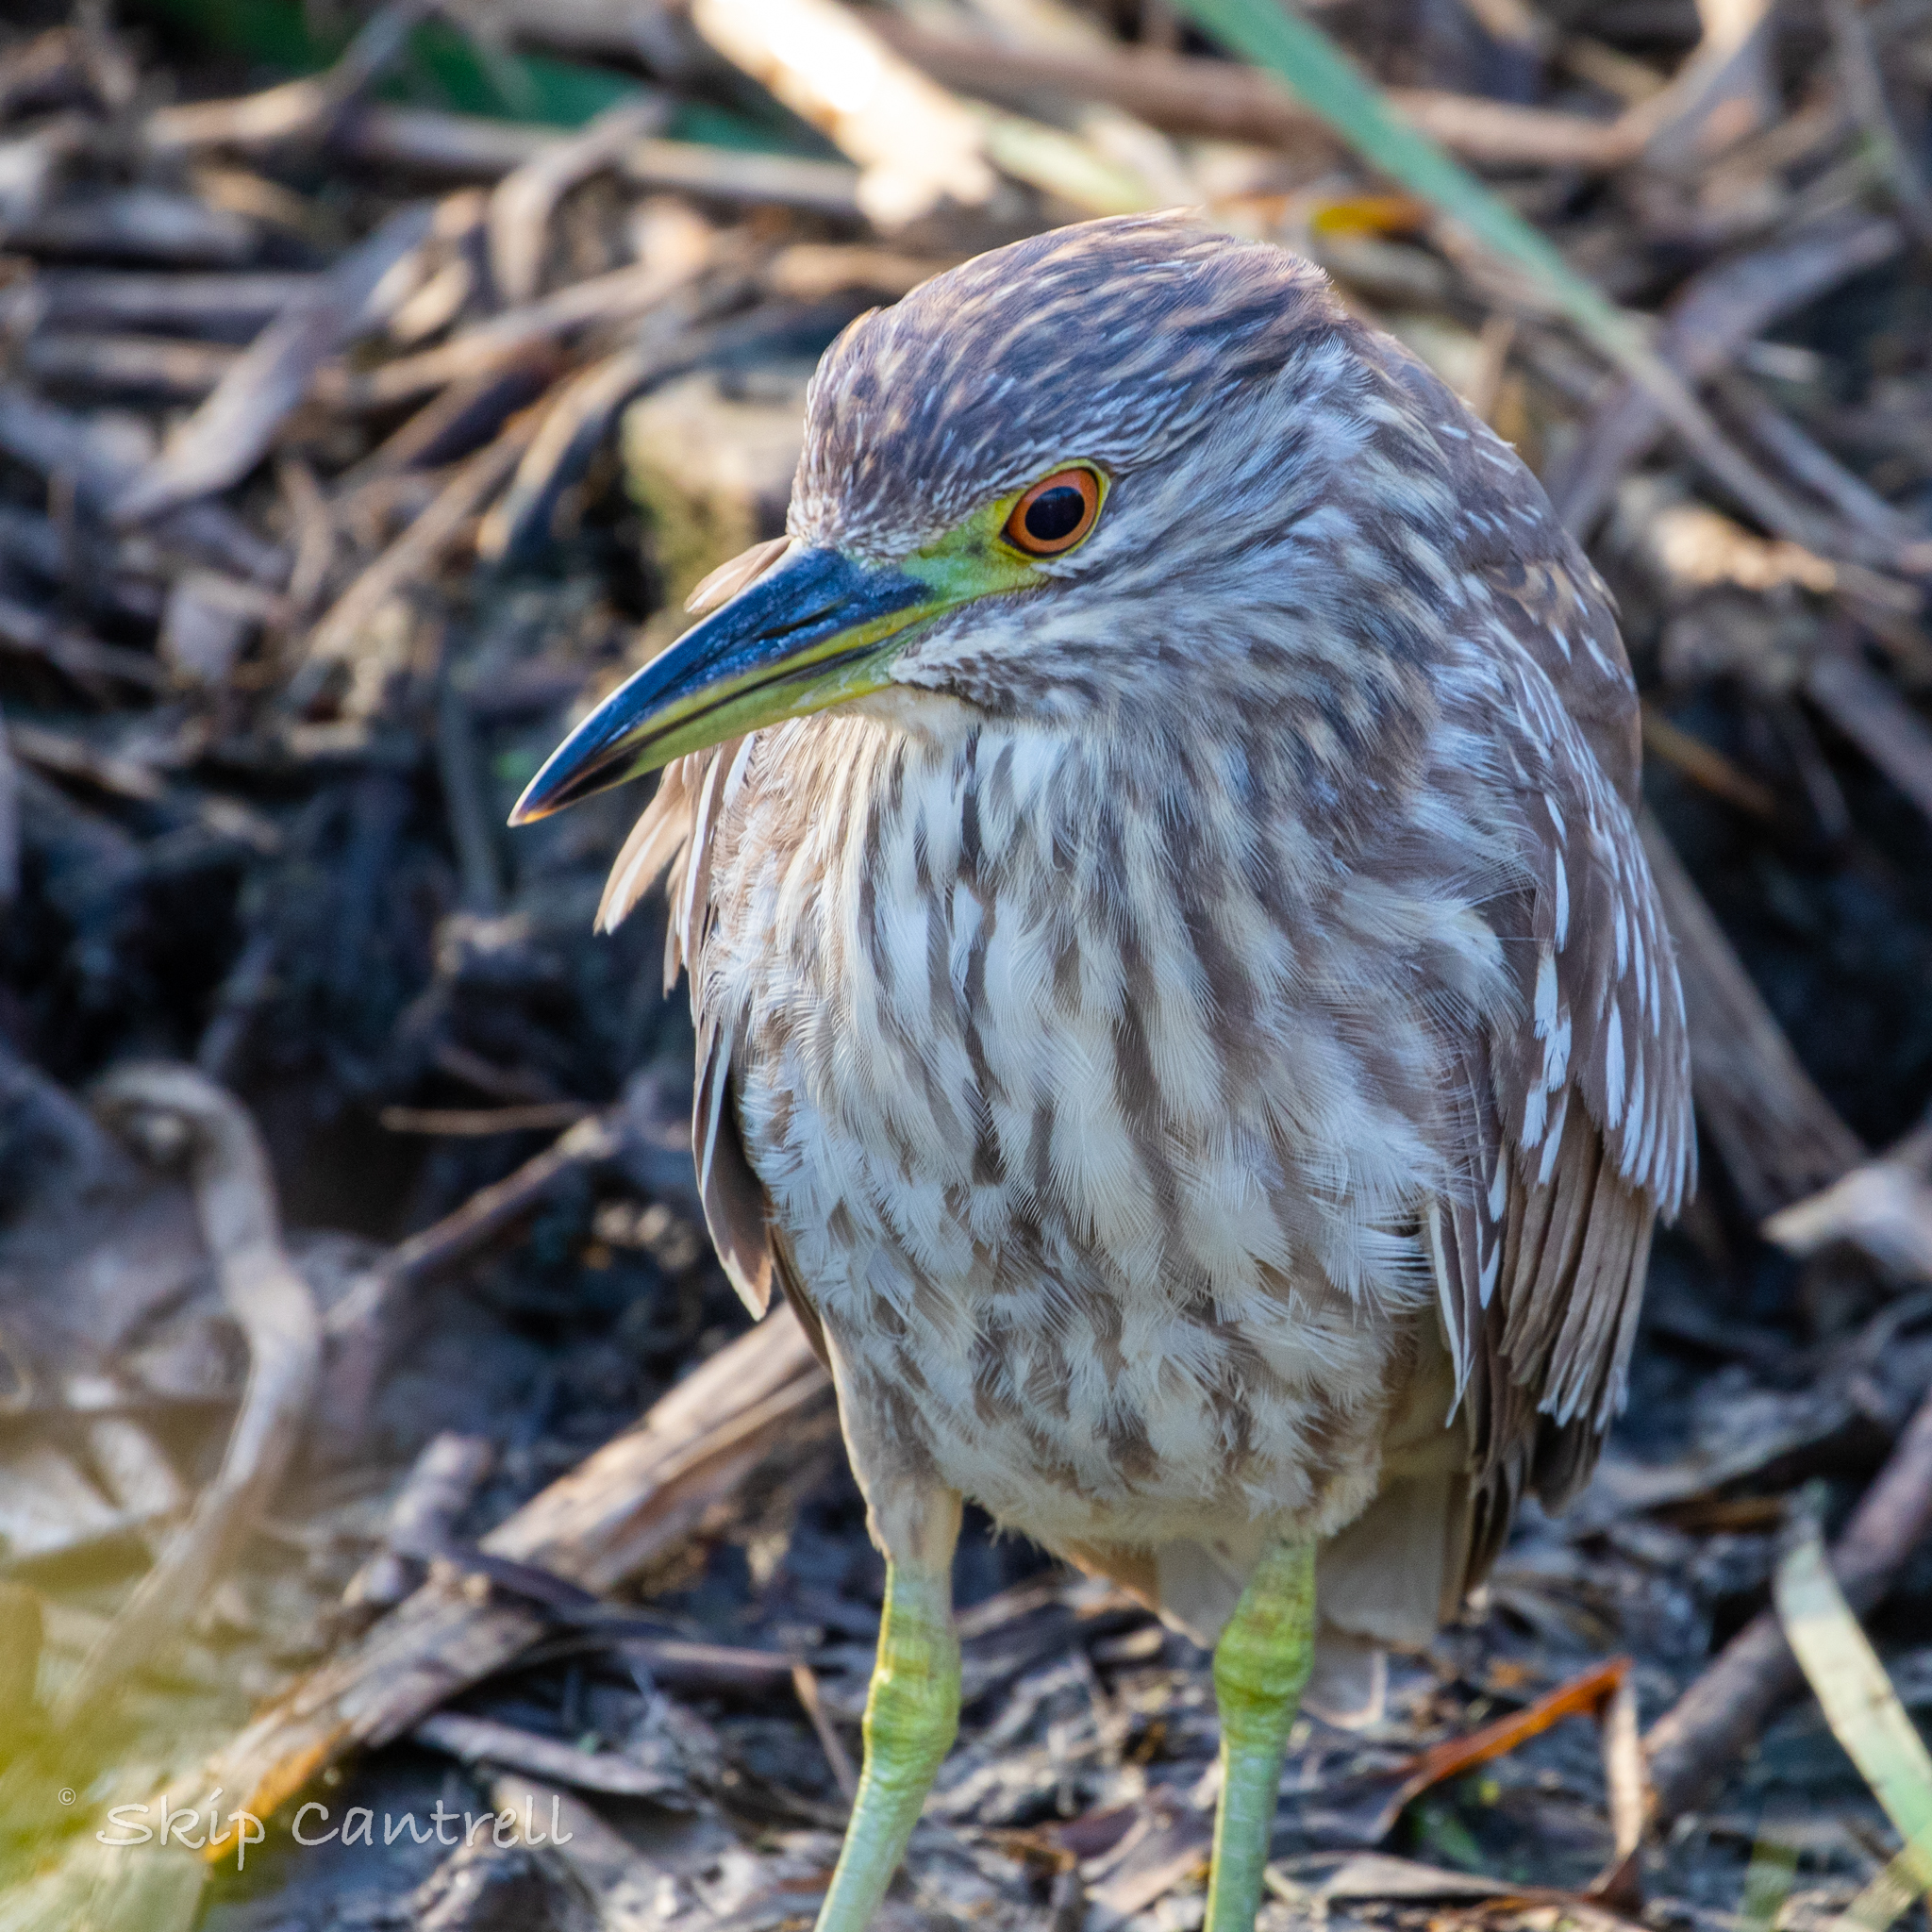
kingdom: Animalia
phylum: Chordata
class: Aves
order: Pelecaniformes
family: Ardeidae
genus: Nycticorax
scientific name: Nycticorax nycticorax
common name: Black-crowned night heron
